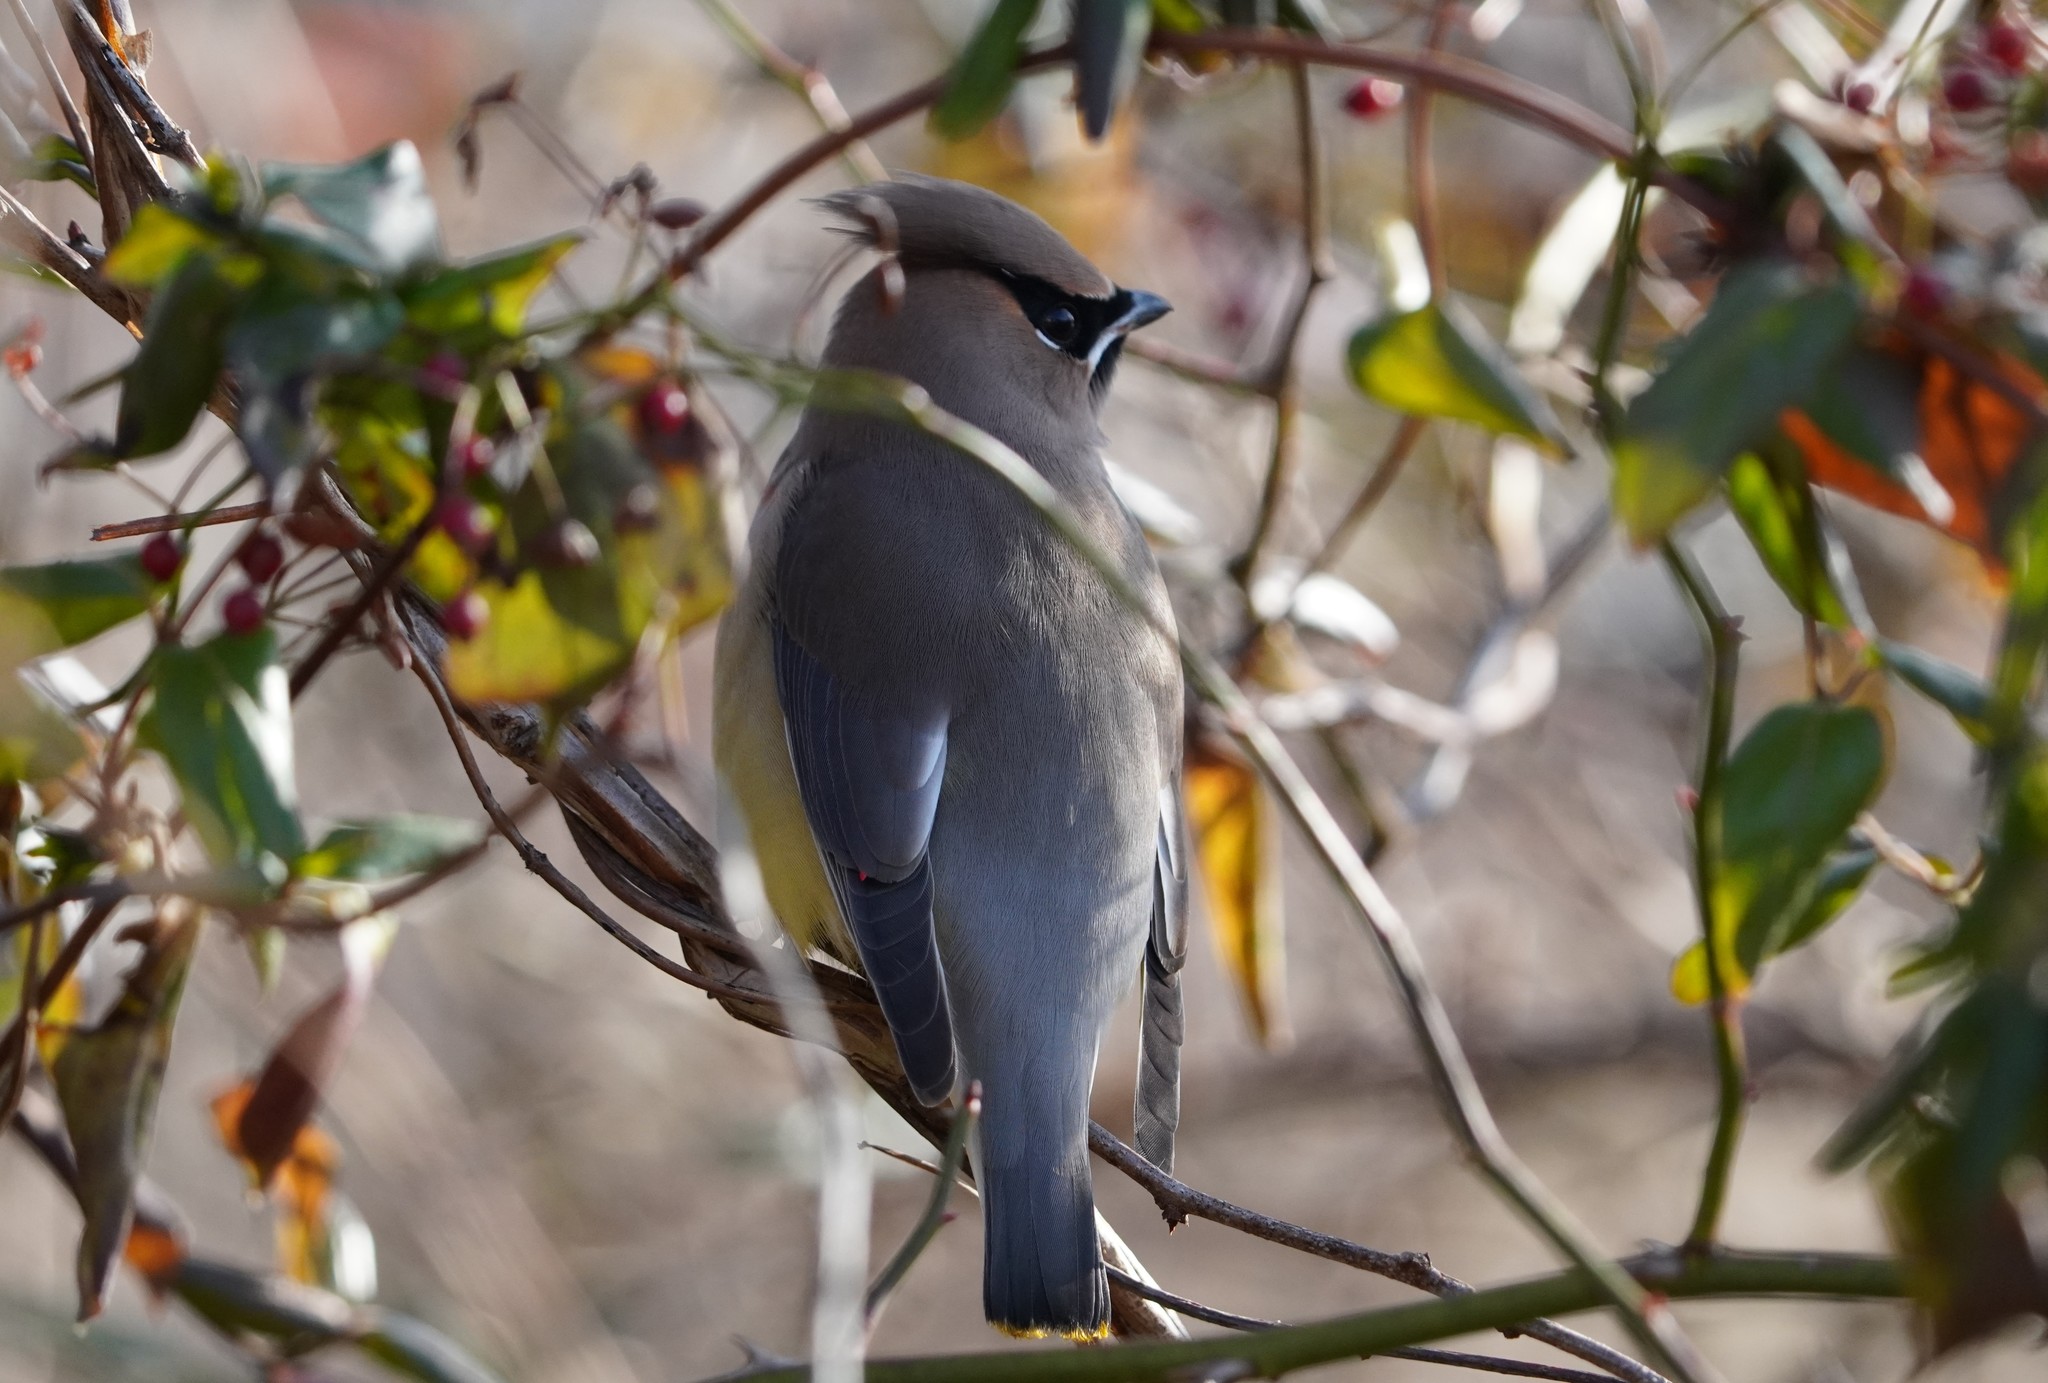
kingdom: Animalia
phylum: Chordata
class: Aves
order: Passeriformes
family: Bombycillidae
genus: Bombycilla
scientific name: Bombycilla cedrorum
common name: Cedar waxwing
